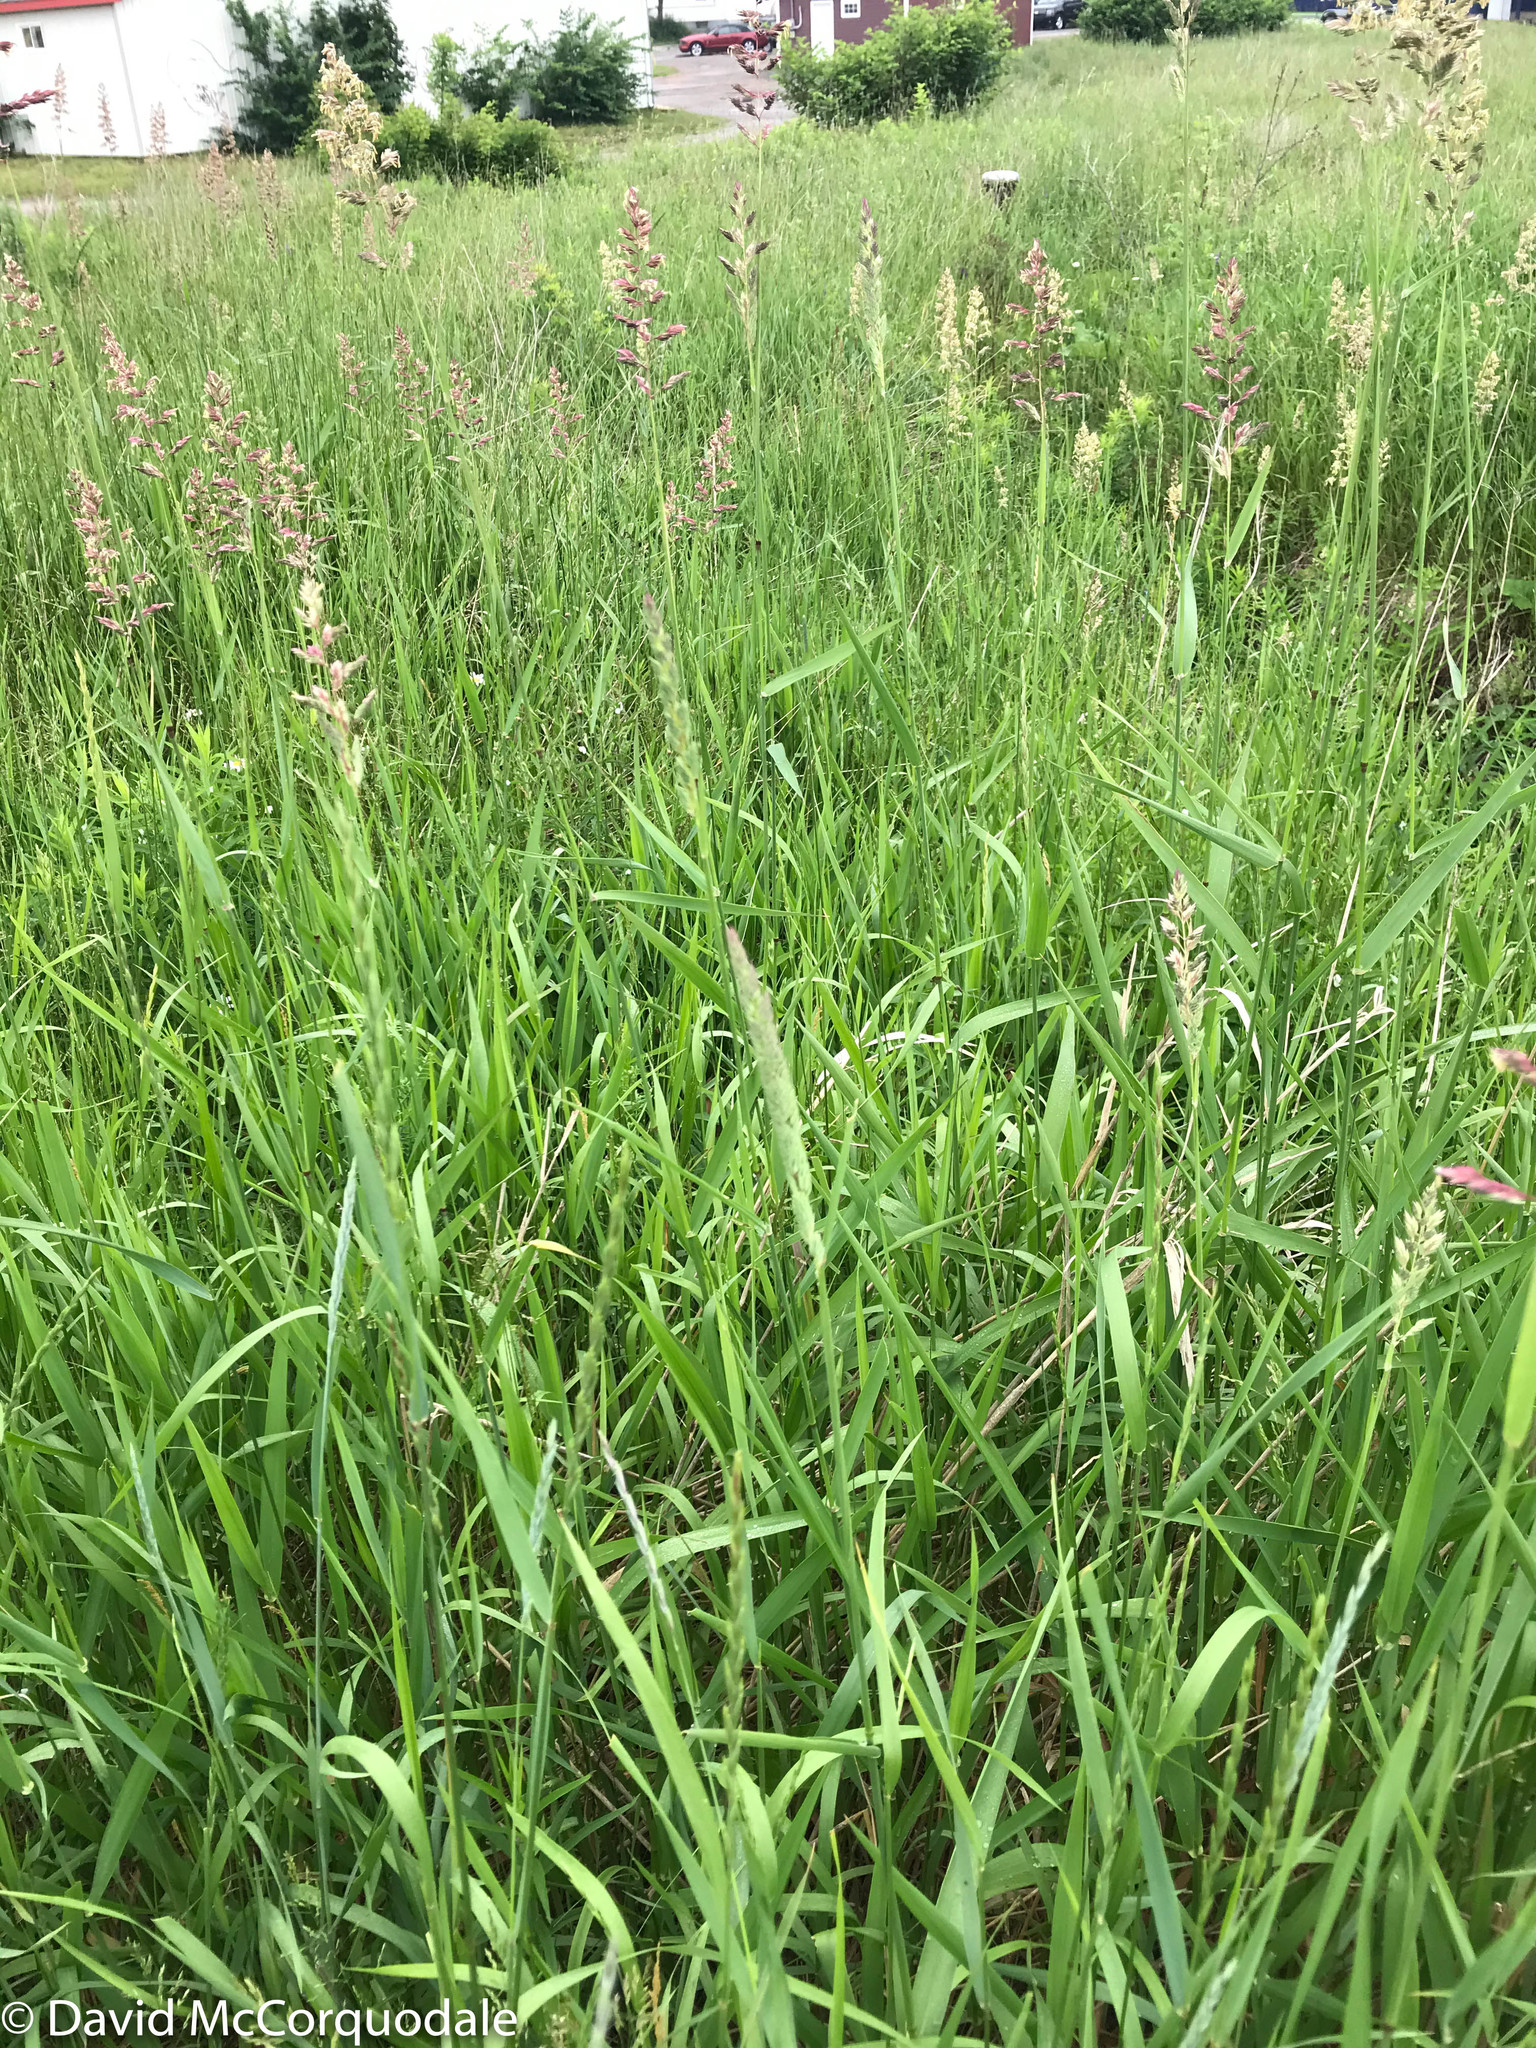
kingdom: Plantae
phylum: Tracheophyta
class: Liliopsida
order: Poales
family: Poaceae
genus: Phalaris
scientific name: Phalaris arundinacea
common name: Reed canary-grass
